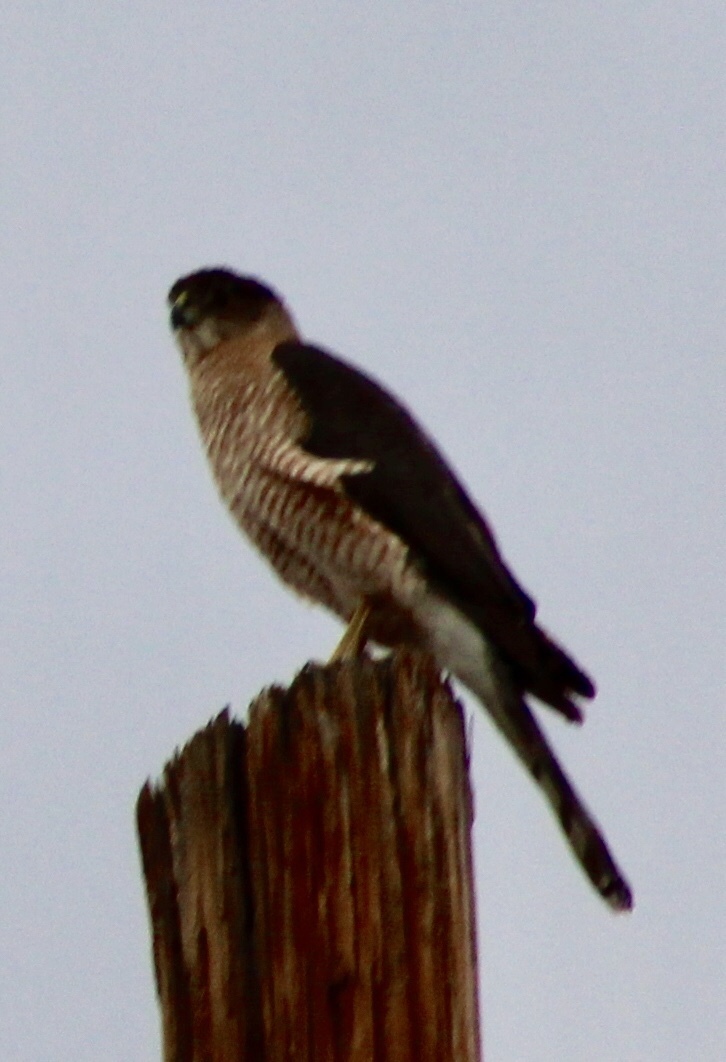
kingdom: Animalia
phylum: Chordata
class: Aves
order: Accipitriformes
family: Accipitridae
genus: Accipiter
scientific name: Accipiter cooperii
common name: Cooper's hawk
